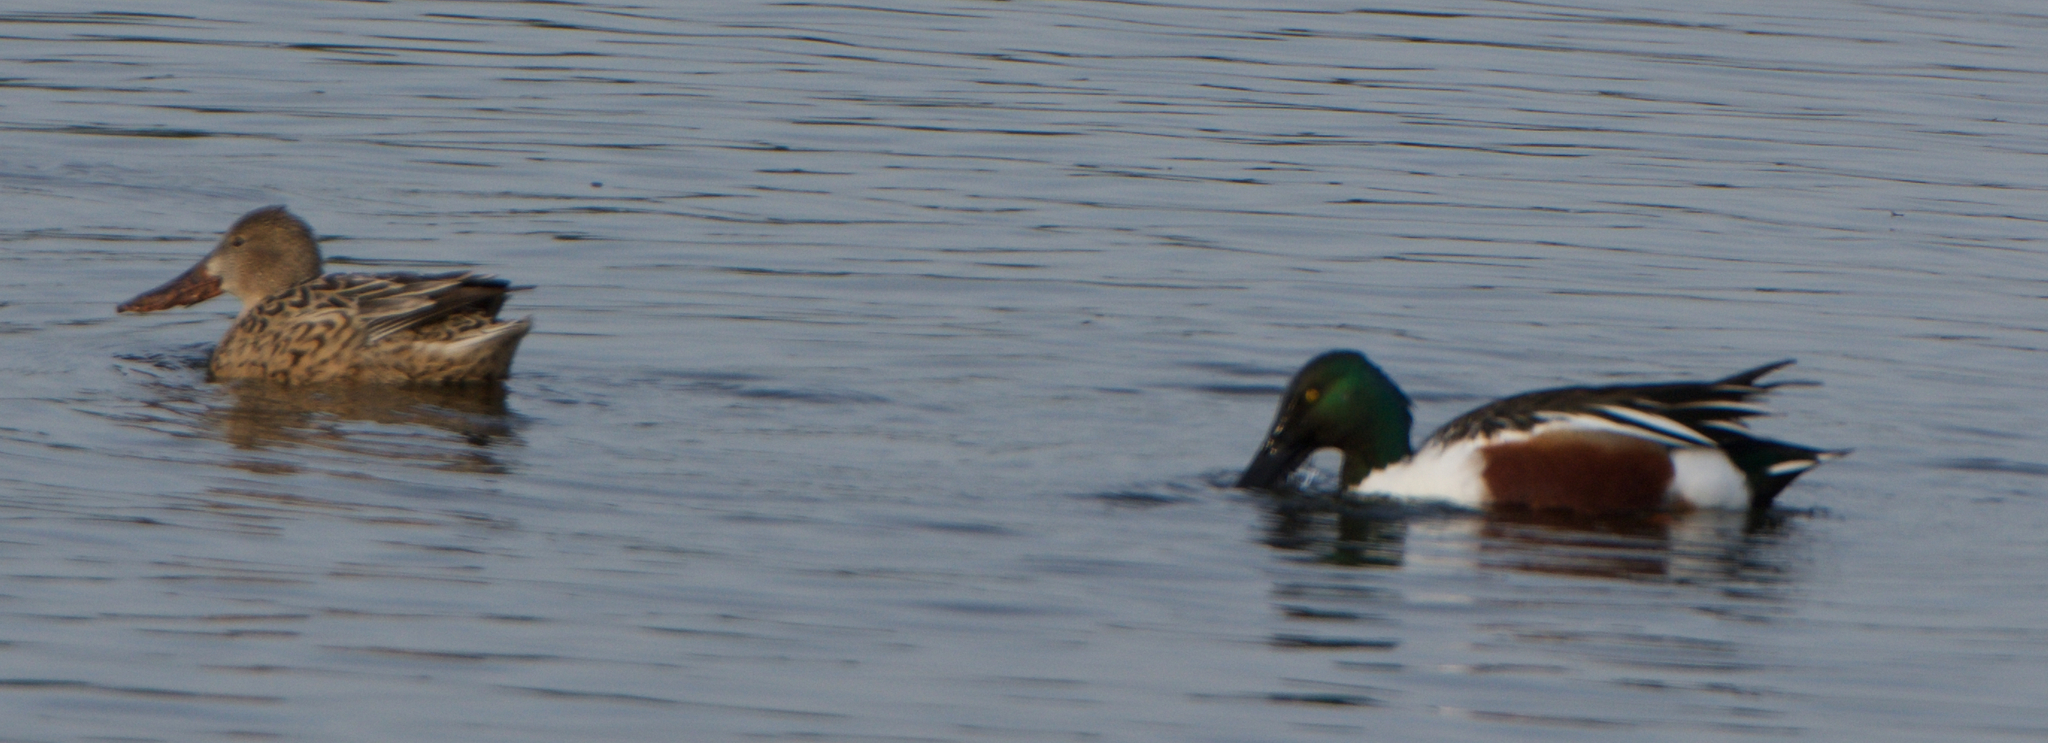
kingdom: Animalia
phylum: Chordata
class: Aves
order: Anseriformes
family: Anatidae
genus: Spatula
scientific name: Spatula clypeata
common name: Northern shoveler
